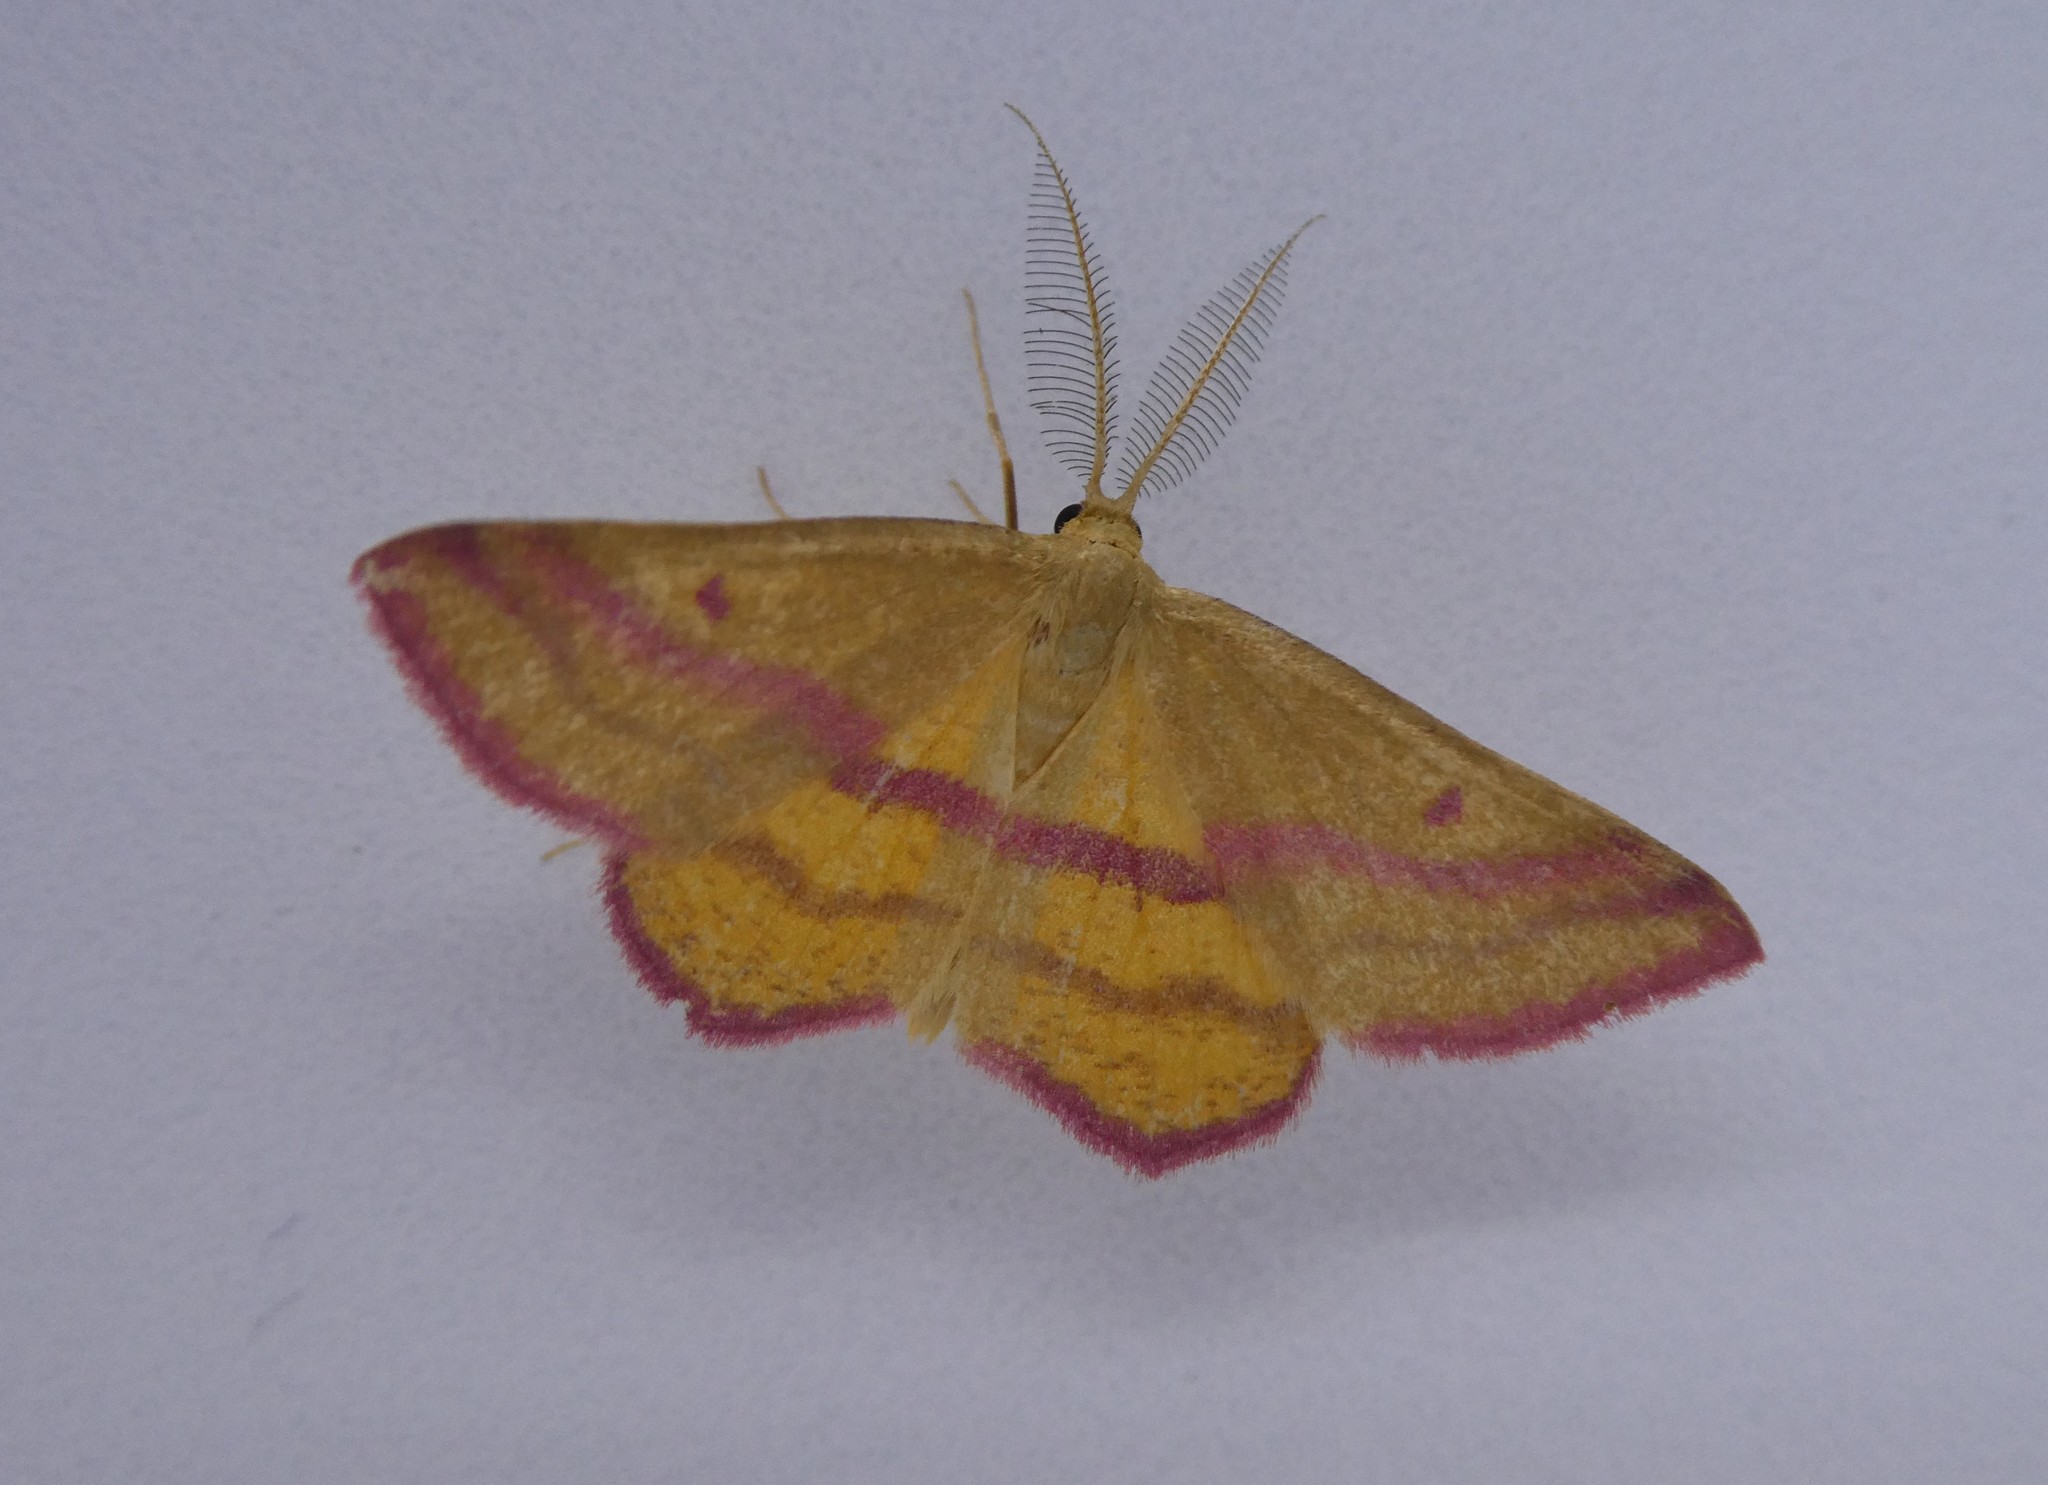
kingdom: Animalia
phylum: Arthropoda
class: Insecta
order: Lepidoptera
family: Geometridae
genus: Haematopis
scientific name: Haematopis grataria
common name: Chickweed geometer
